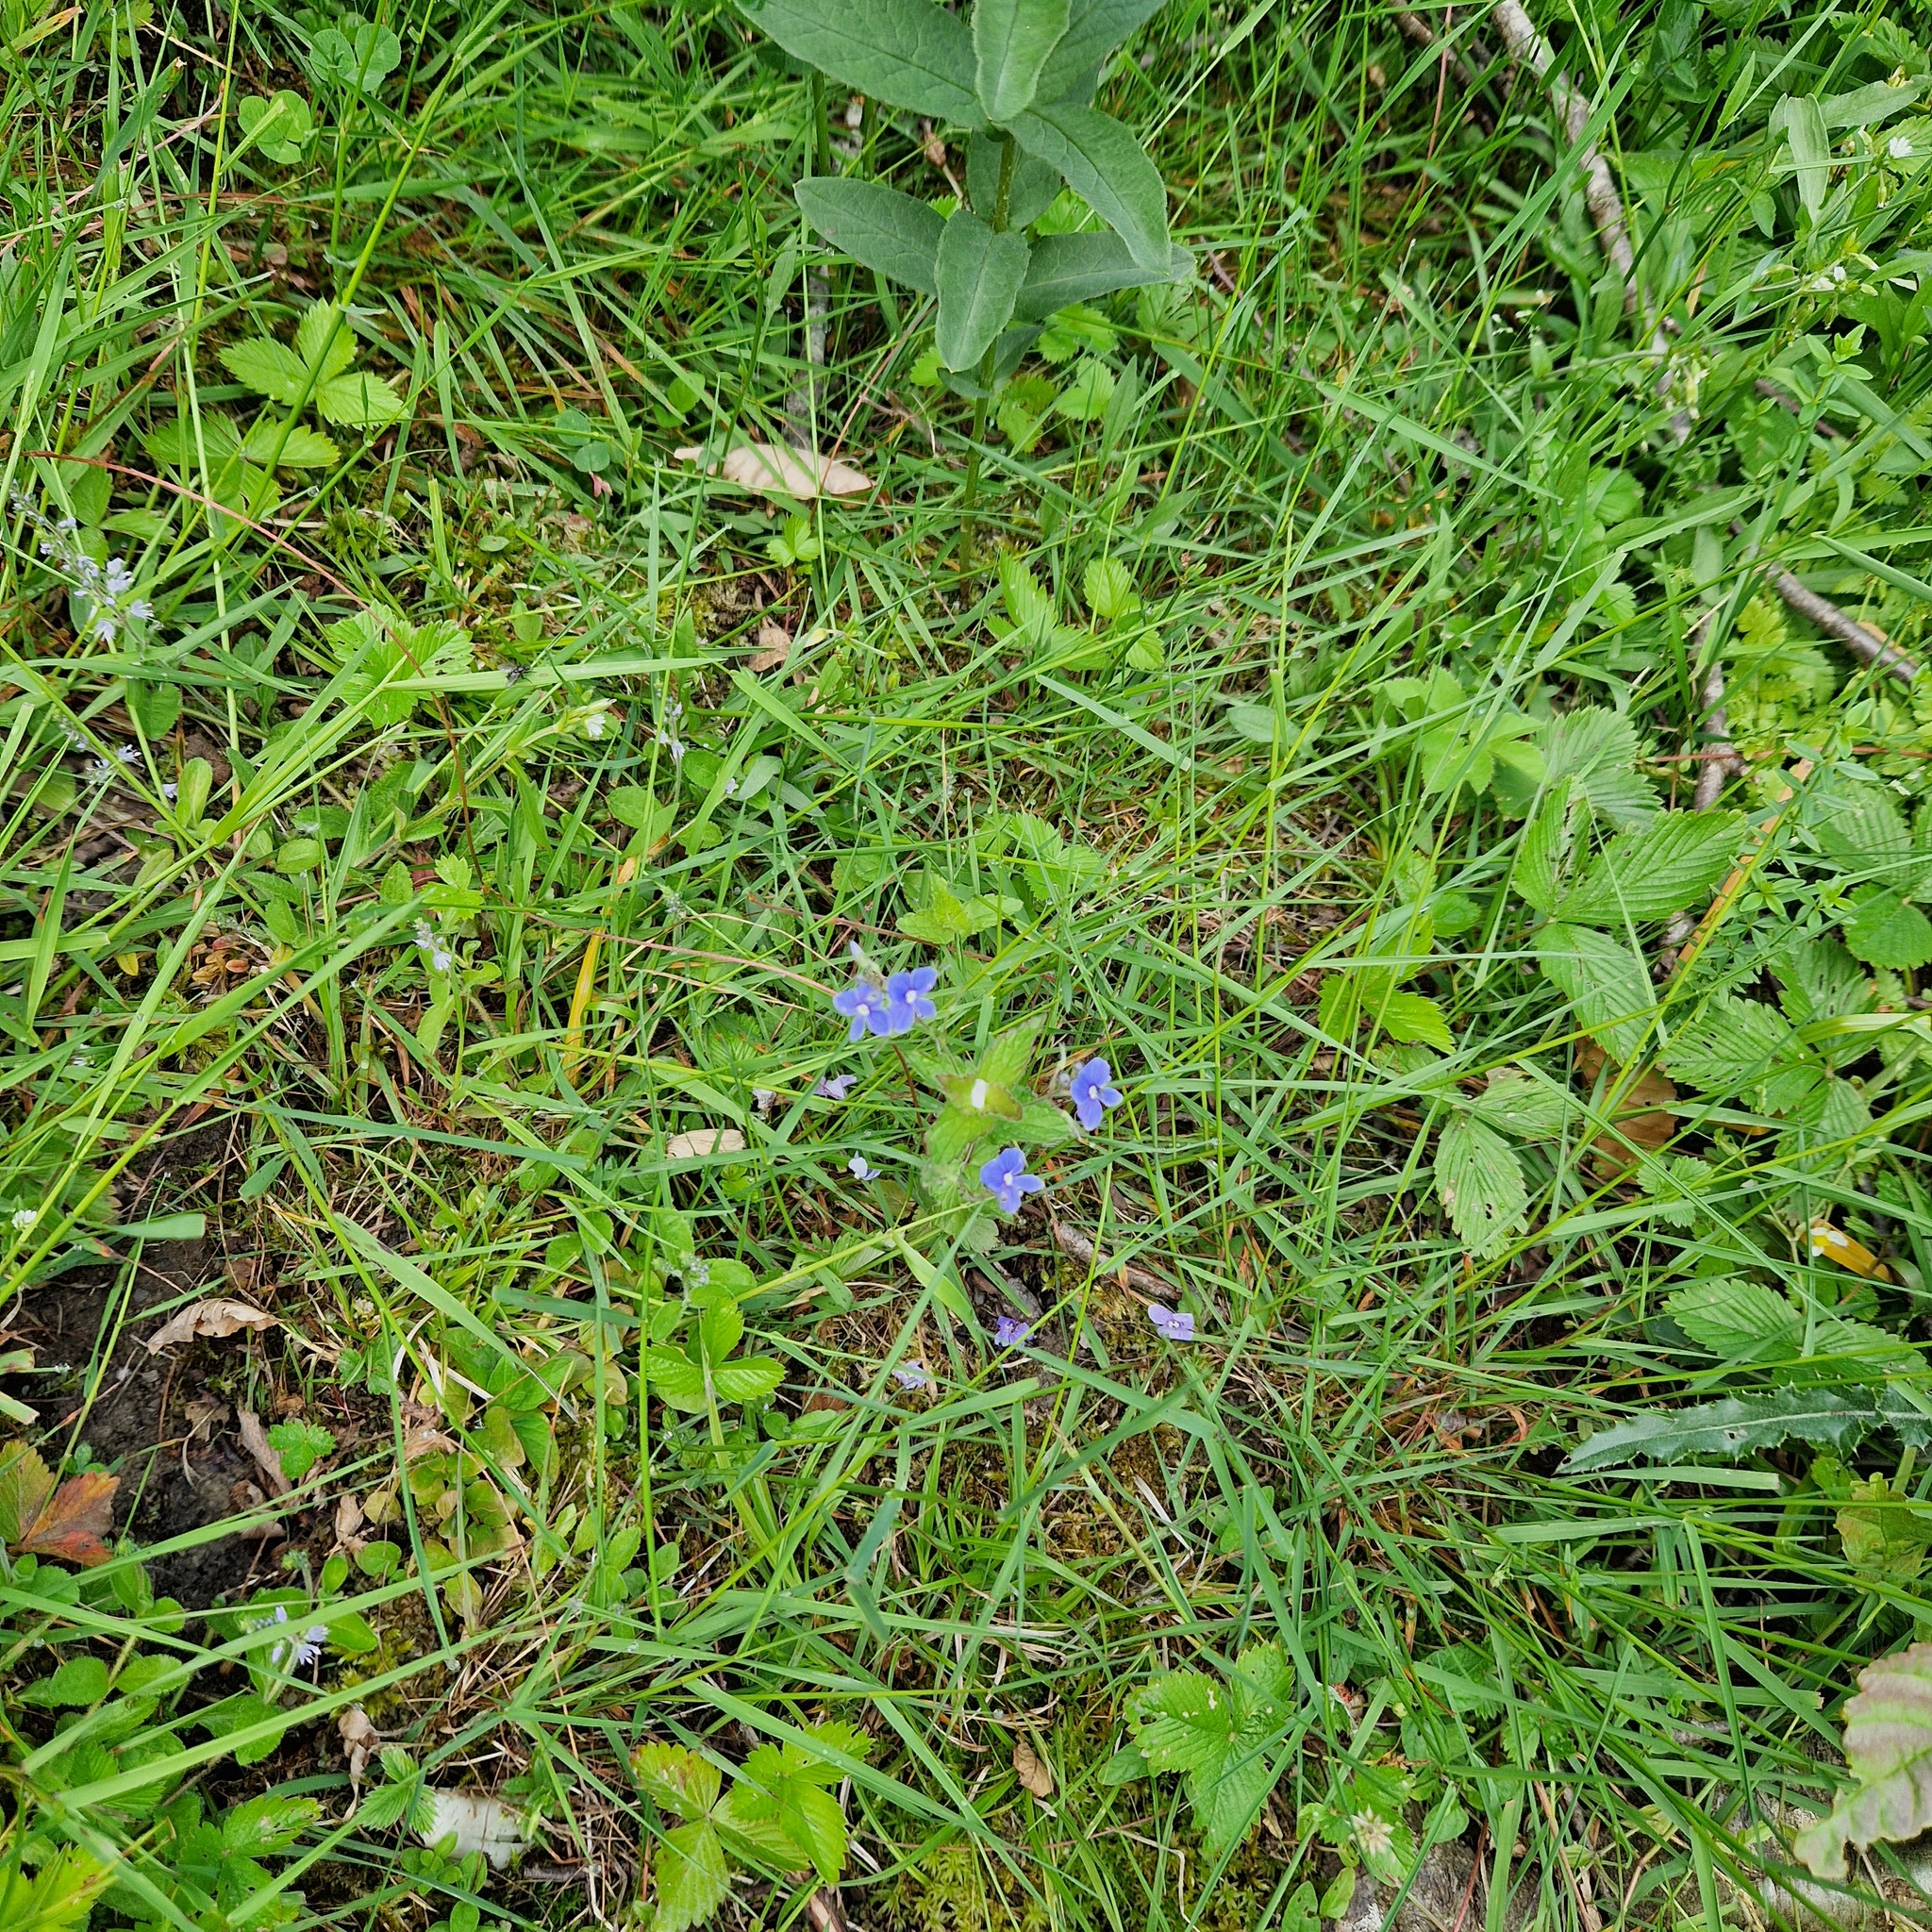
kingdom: Plantae
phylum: Tracheophyta
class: Magnoliopsida
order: Lamiales
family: Plantaginaceae
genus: Veronica
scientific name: Veronica chamaedrys
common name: Germander speedwell
